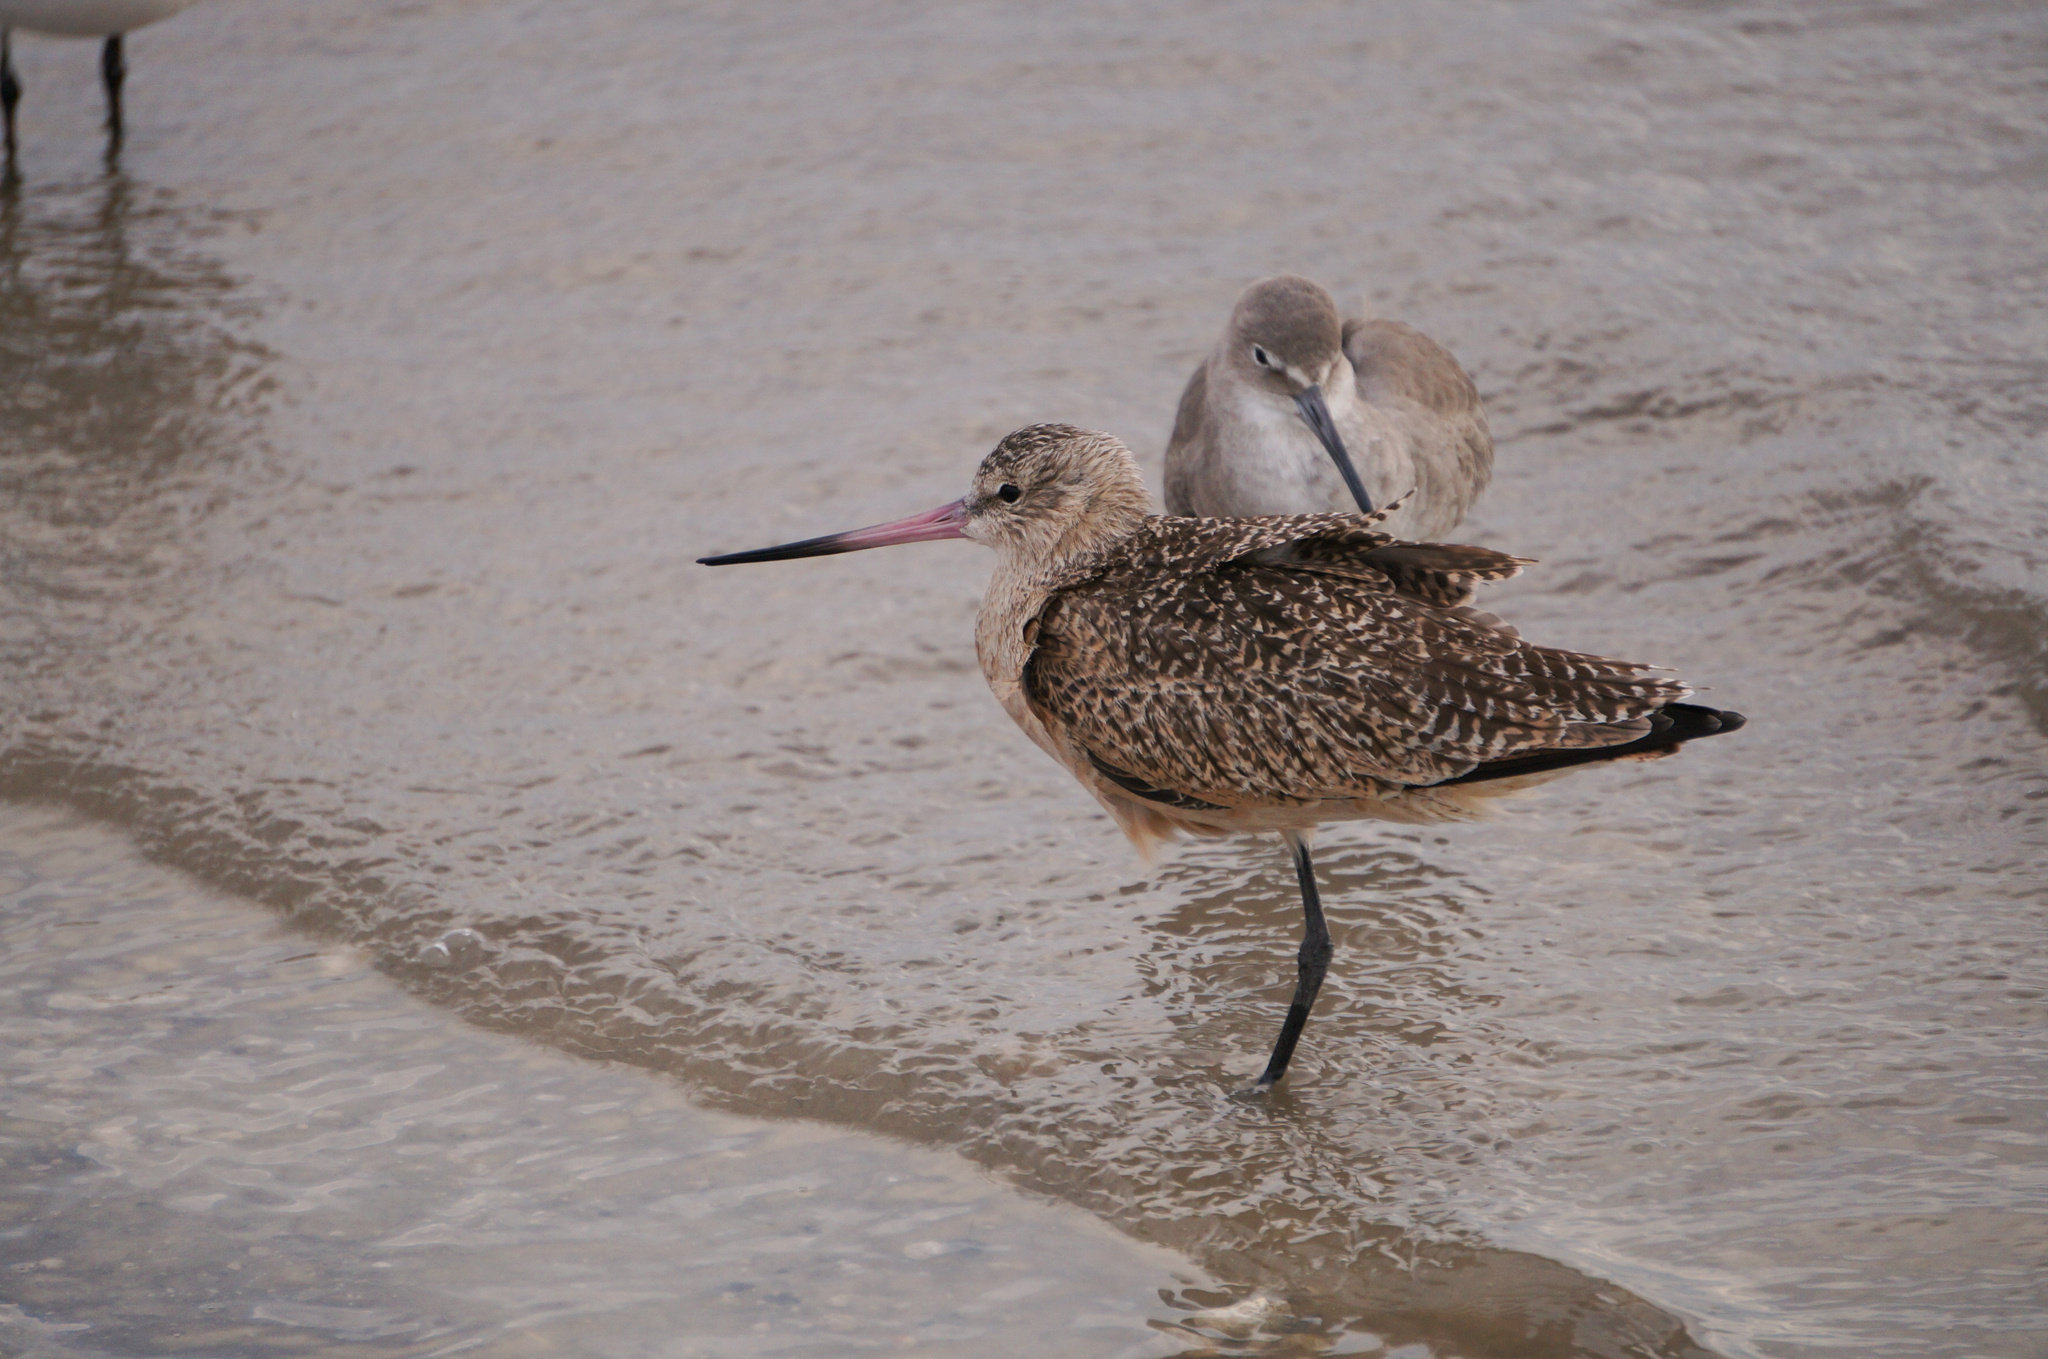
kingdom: Animalia
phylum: Chordata
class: Aves
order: Charadriiformes
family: Scolopacidae
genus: Limosa
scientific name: Limosa fedoa
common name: Marbled godwit
